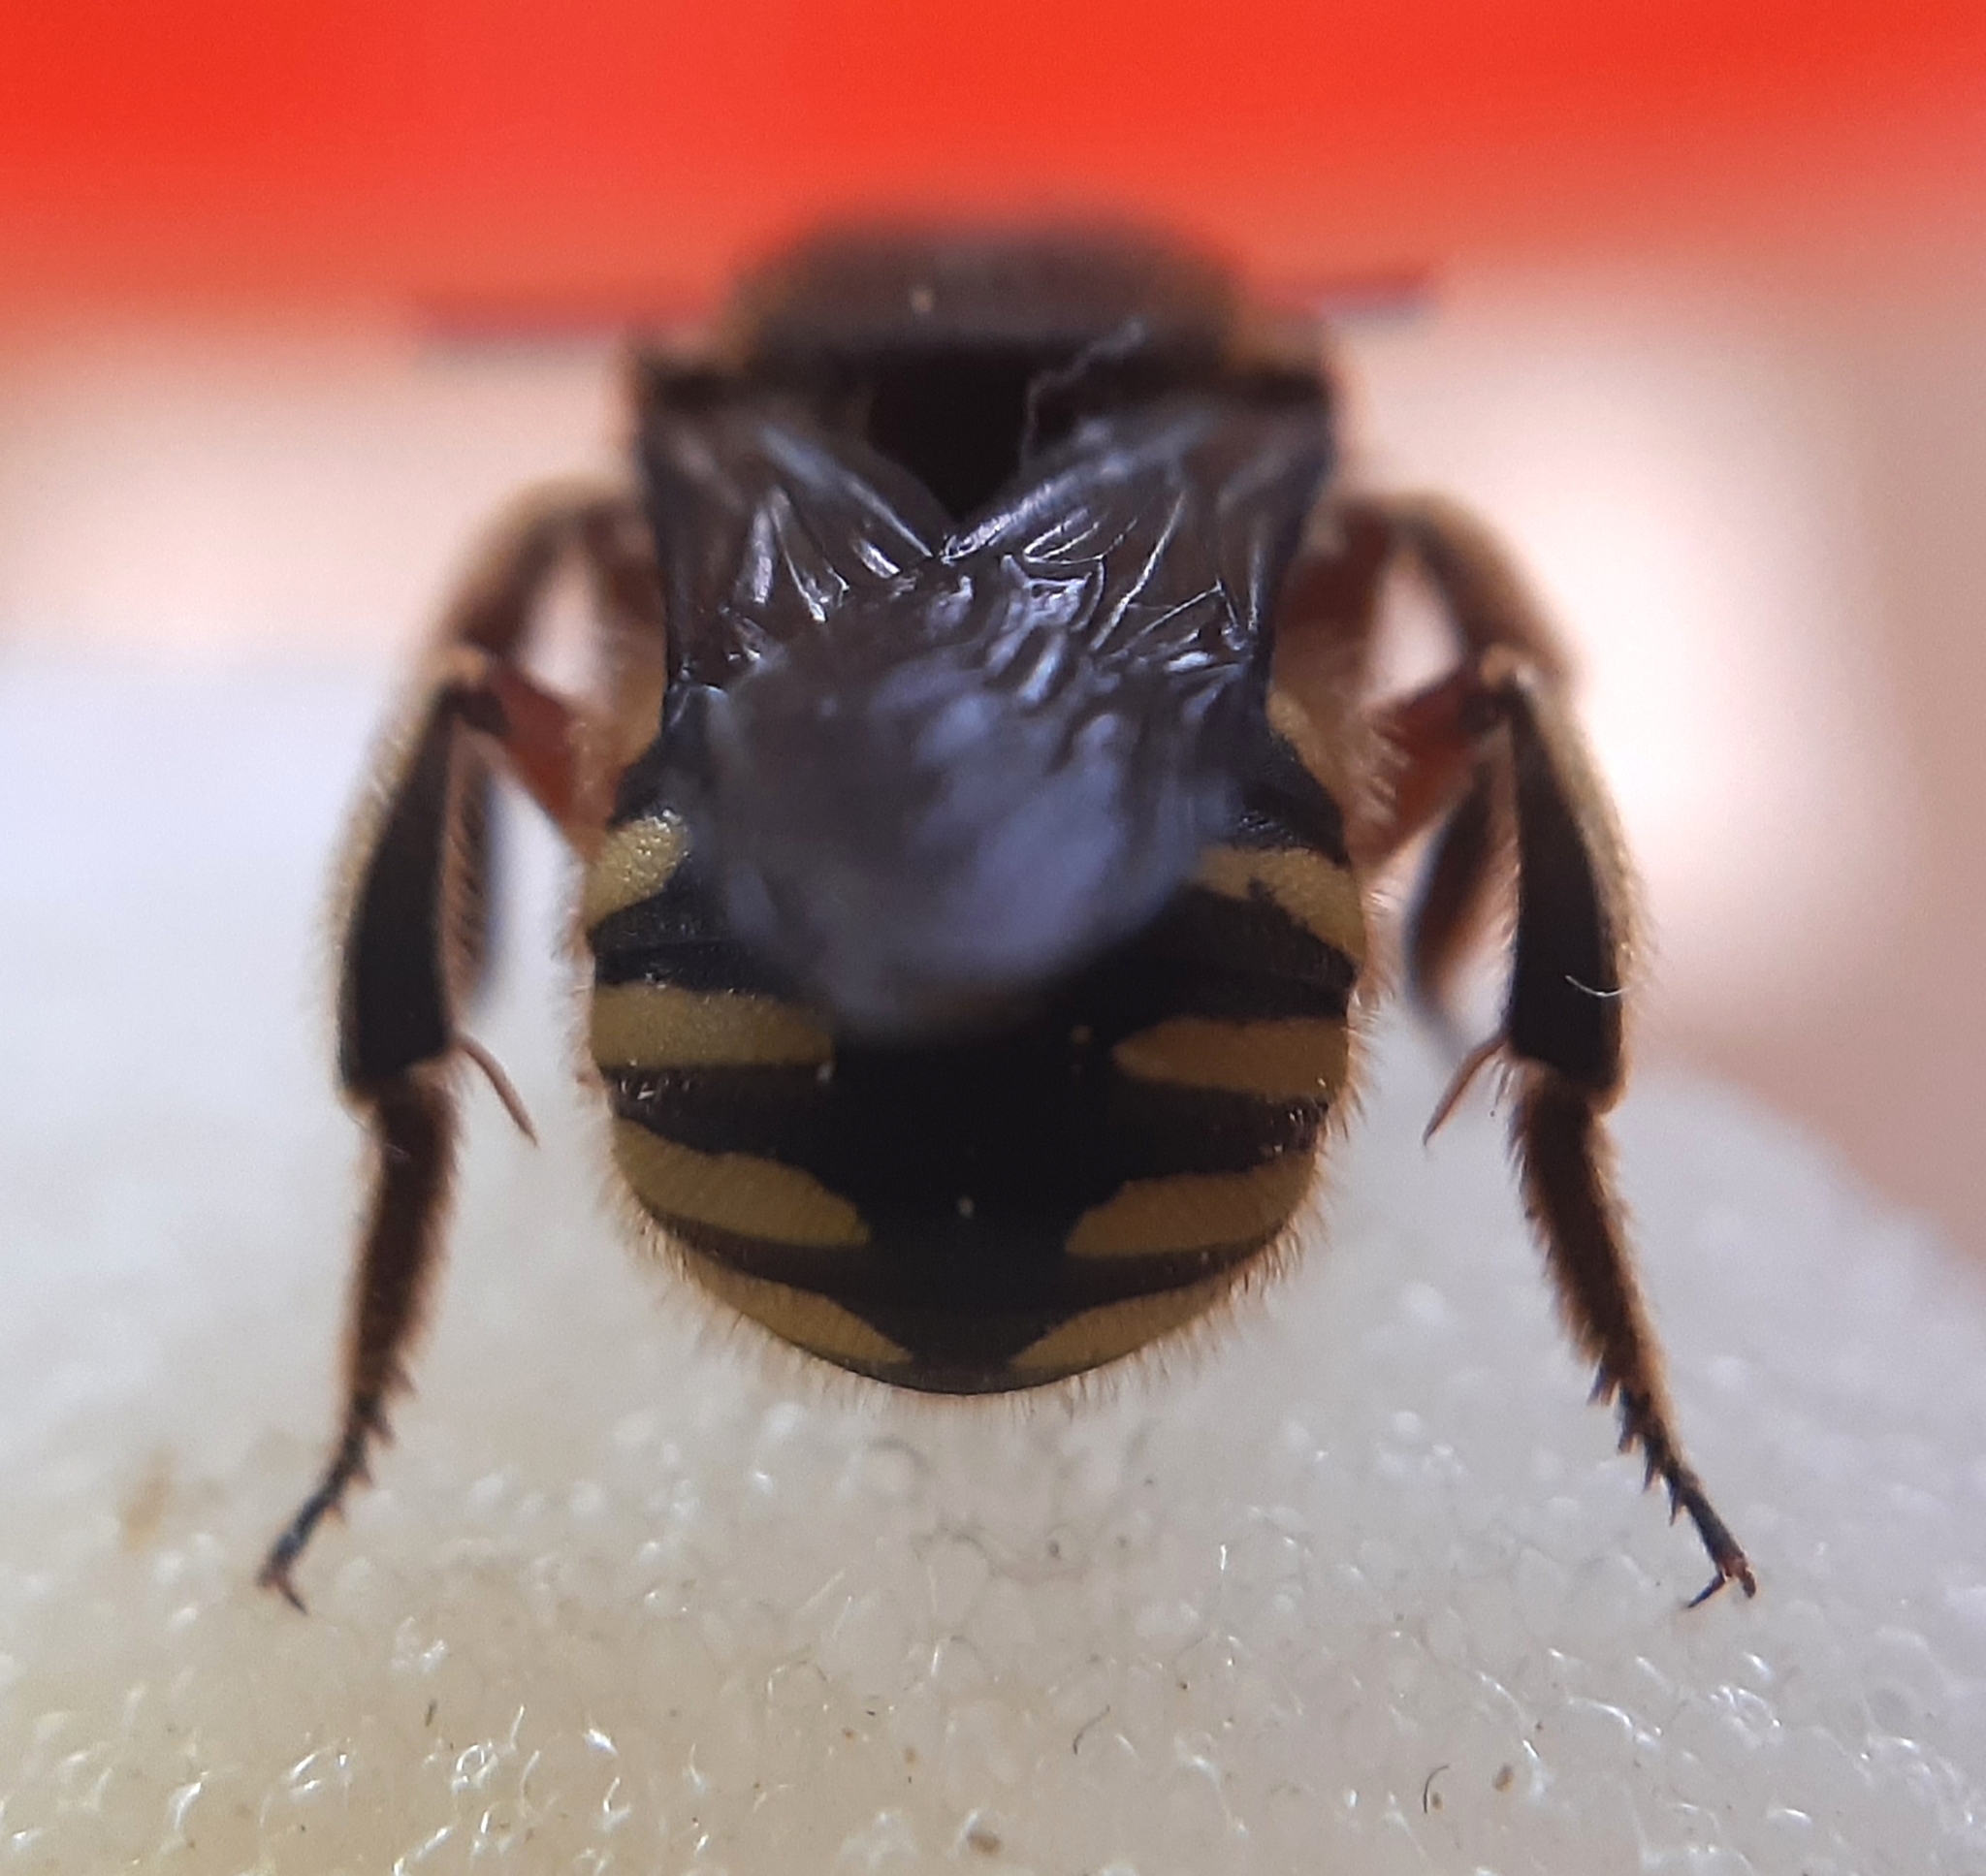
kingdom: Animalia
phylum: Arthropoda
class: Insecta
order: Hymenoptera
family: Megachilidae
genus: Anthidium
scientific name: Anthidium manicatum
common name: Wool carder bee
